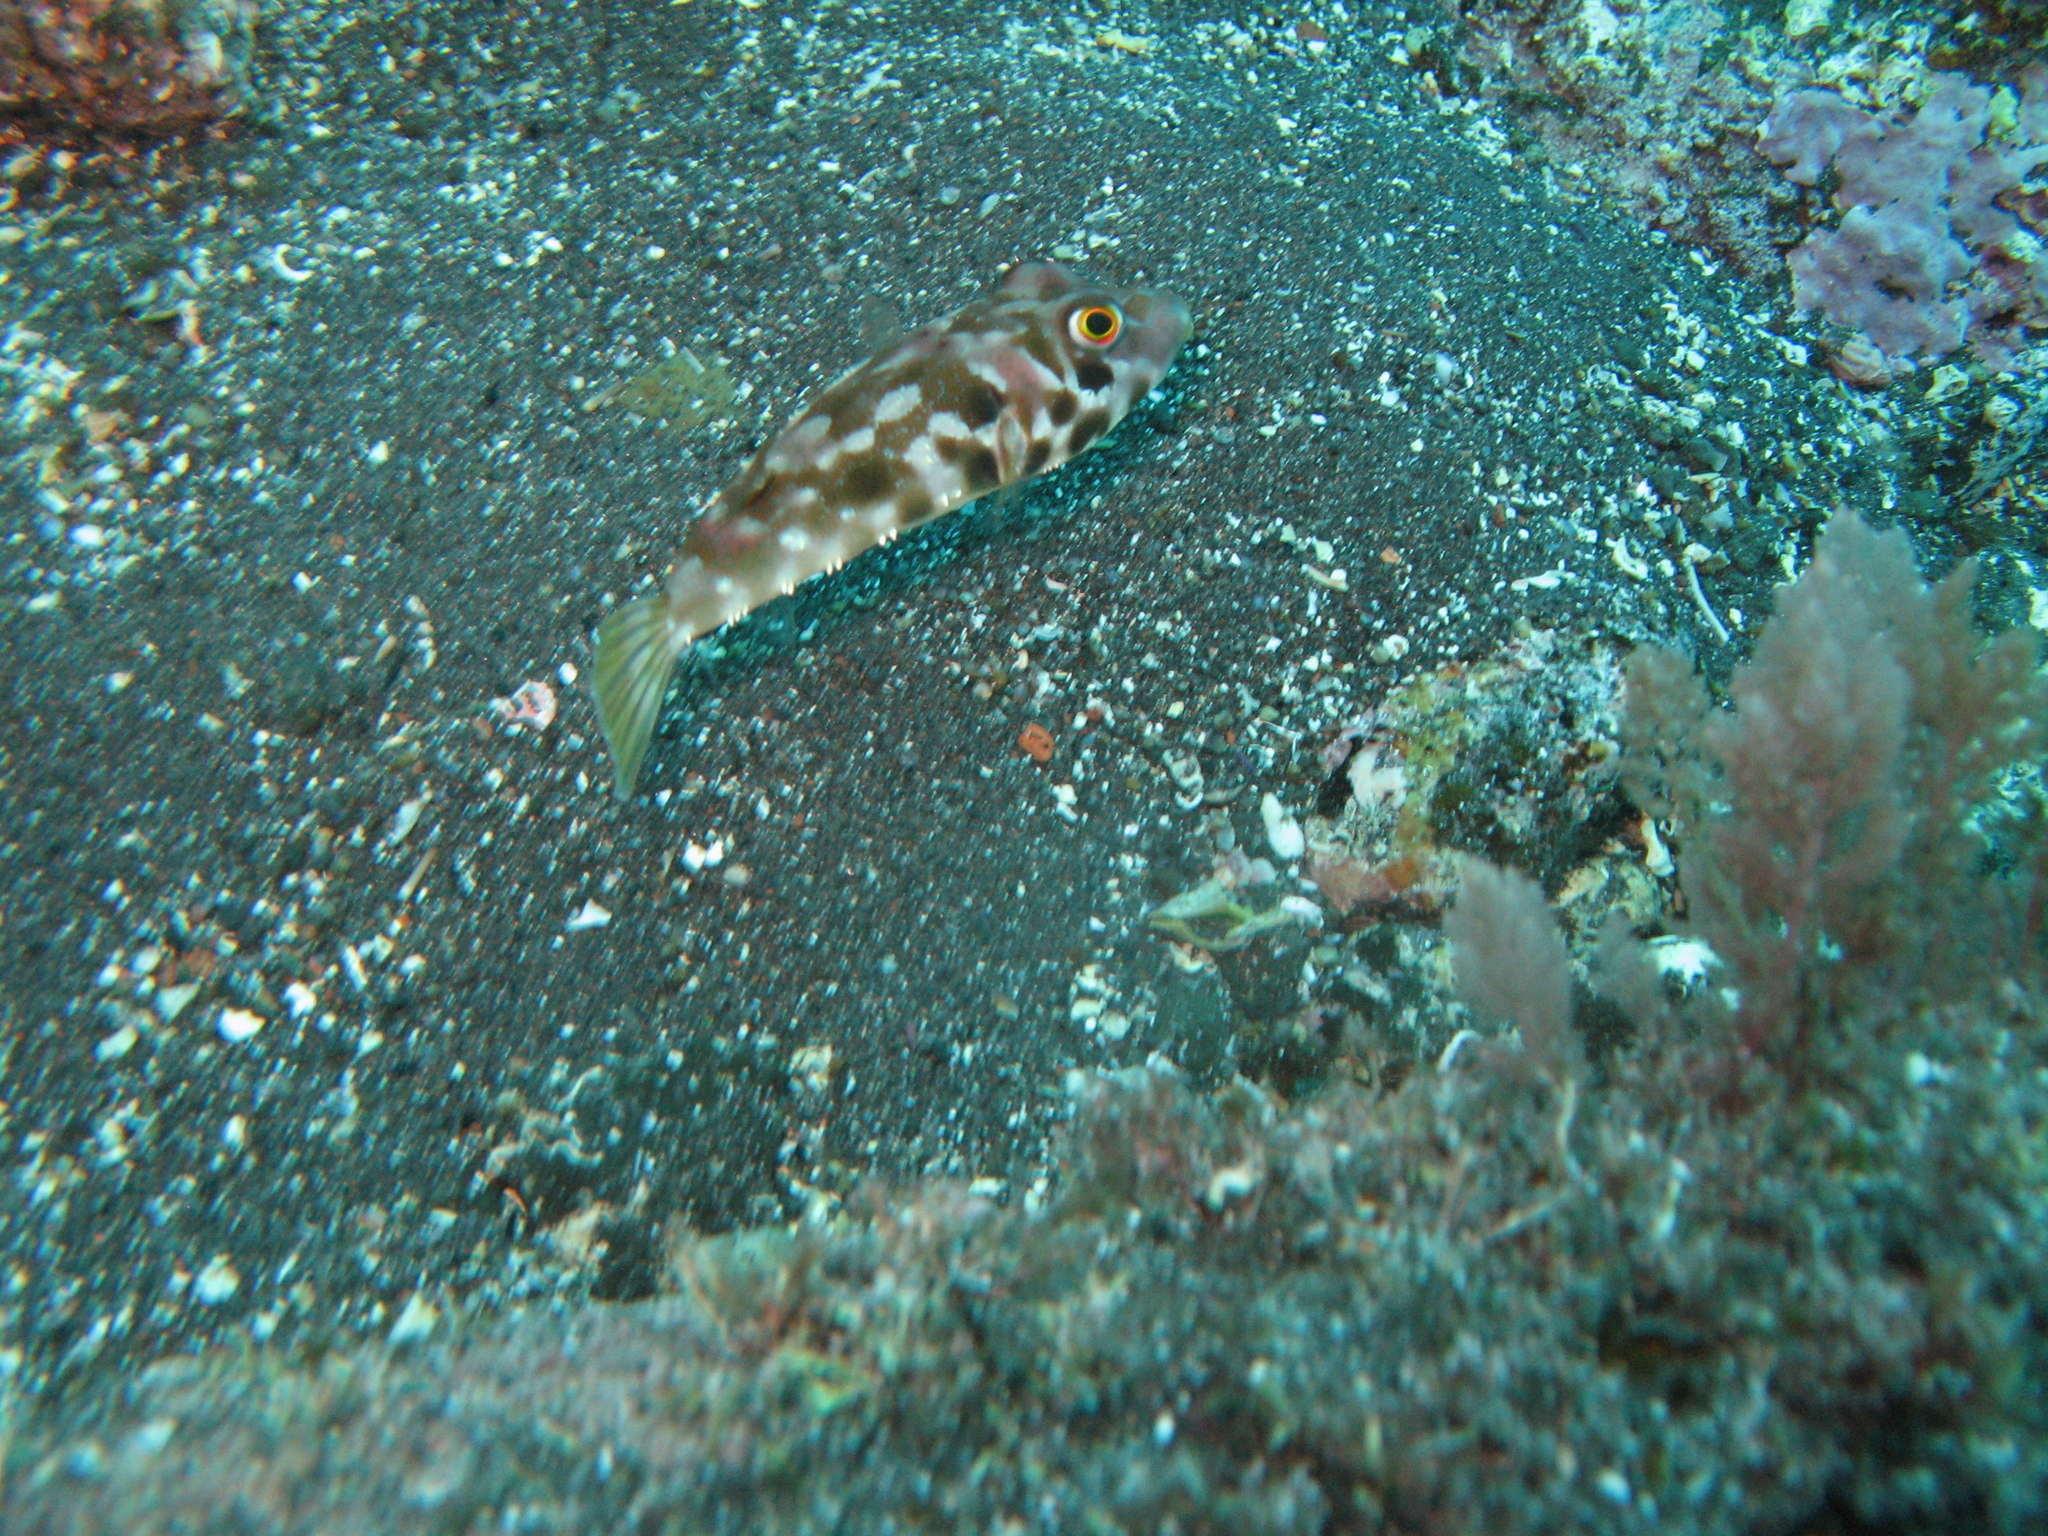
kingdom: Animalia
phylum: Chordata
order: Tetraodontiformes
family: Tetraodontidae
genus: Sphoeroides
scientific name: Sphoeroides marmoratus
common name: Guinean puffer
